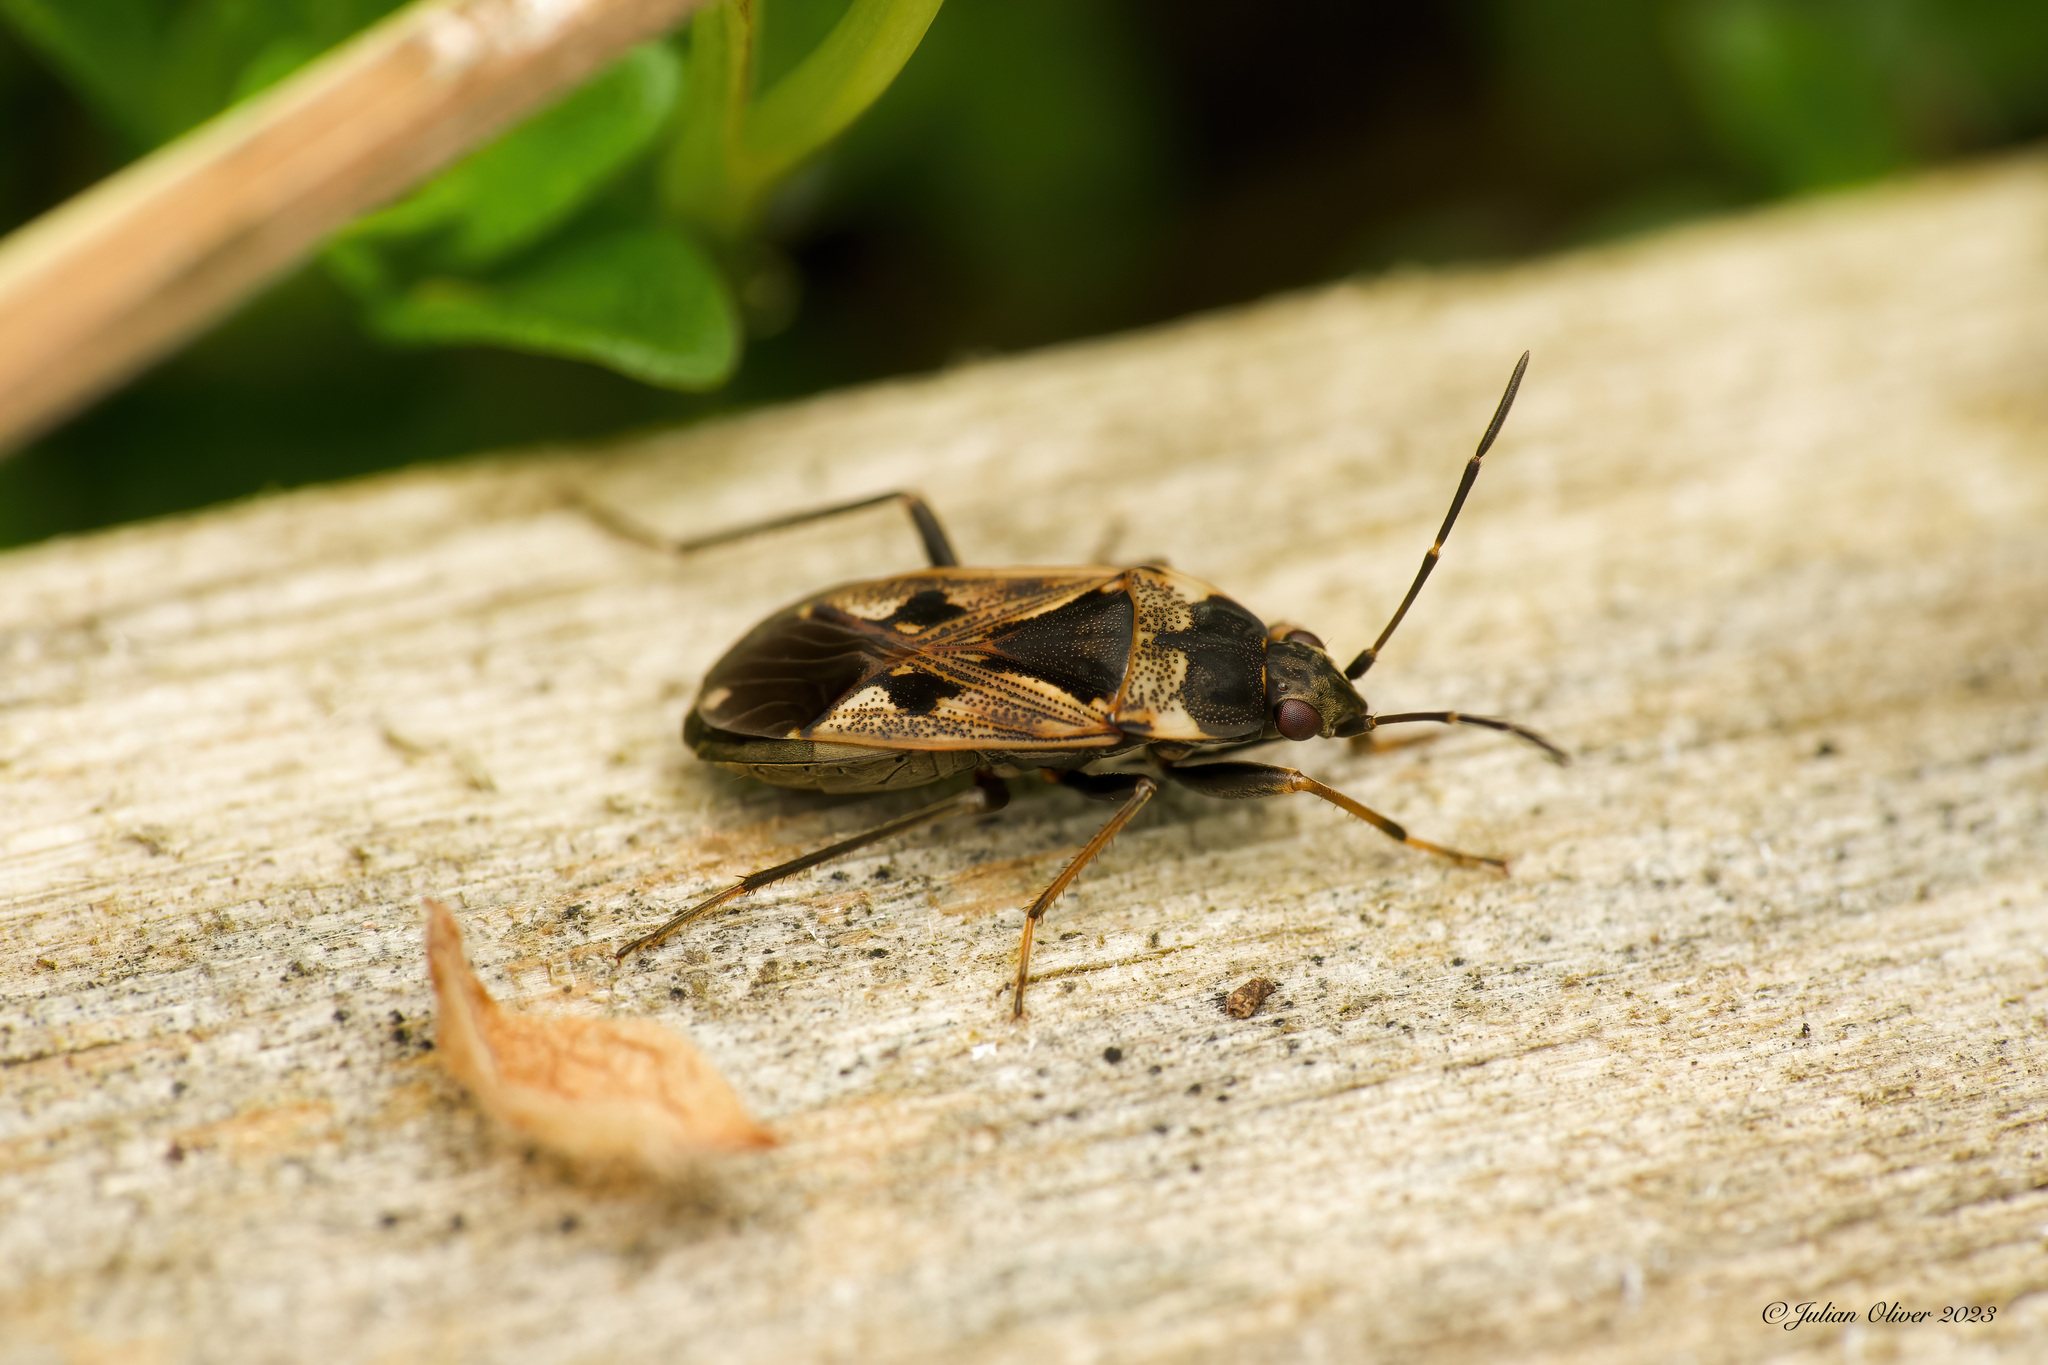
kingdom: Animalia
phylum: Arthropoda
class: Insecta
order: Hemiptera
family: Rhyparochromidae
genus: Rhyparochromus
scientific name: Rhyparochromus vulgaris
